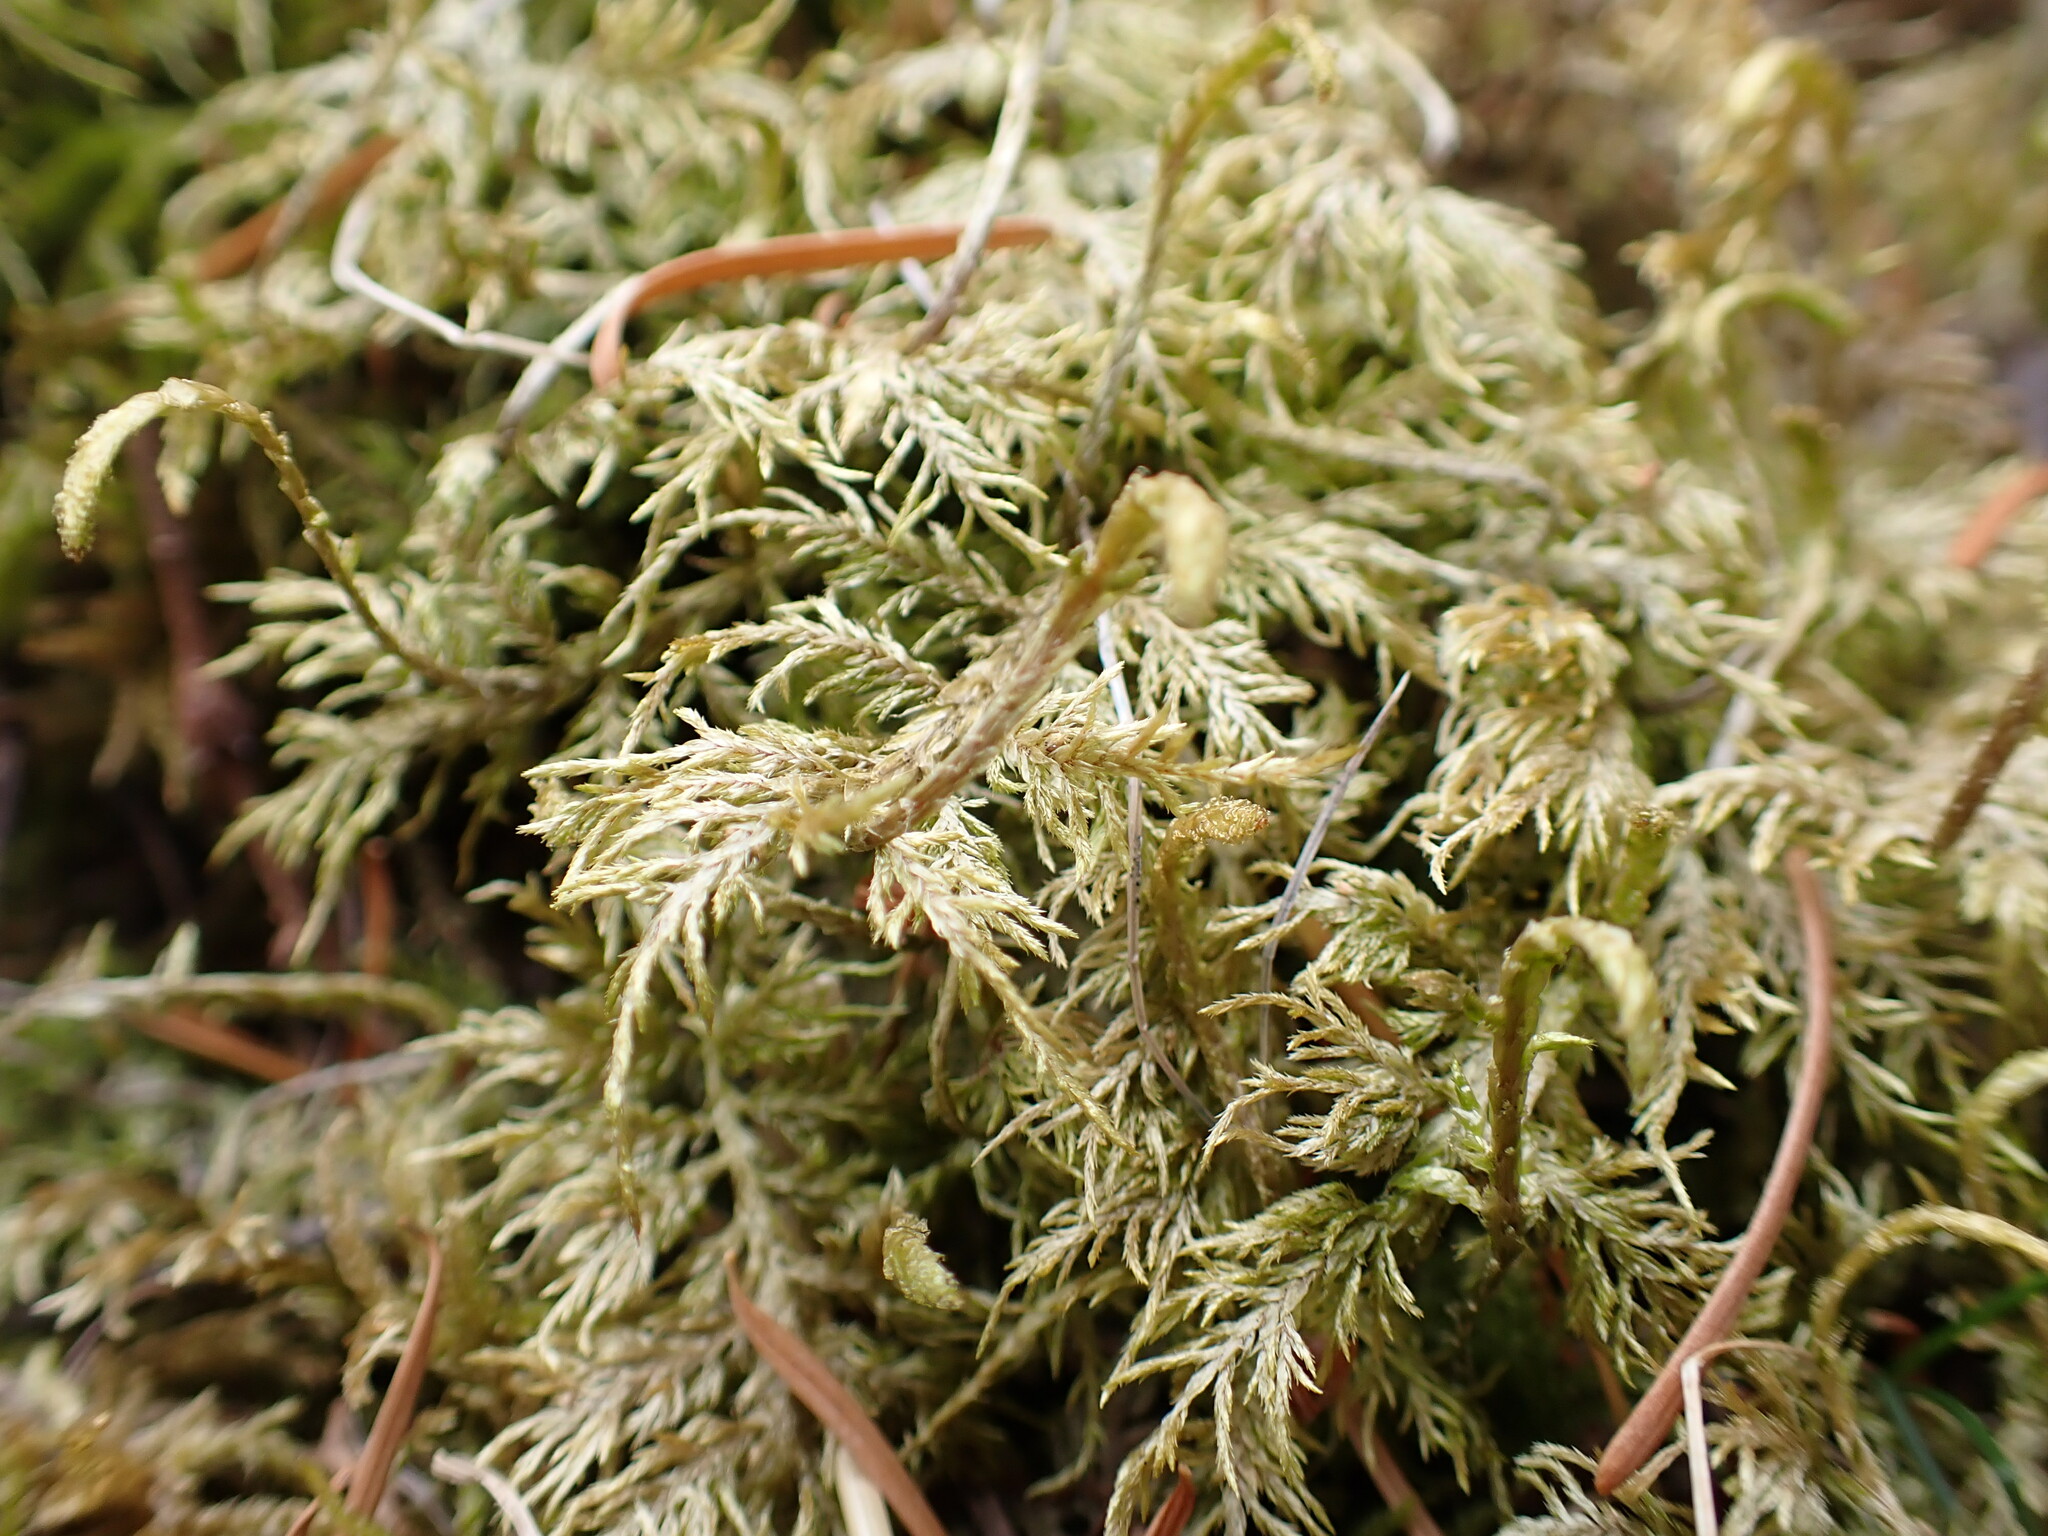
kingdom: Plantae
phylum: Bryophyta
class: Bryopsida
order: Hypnales
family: Hylocomiaceae
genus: Hylocomium
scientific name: Hylocomium splendens
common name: Stairstep moss
